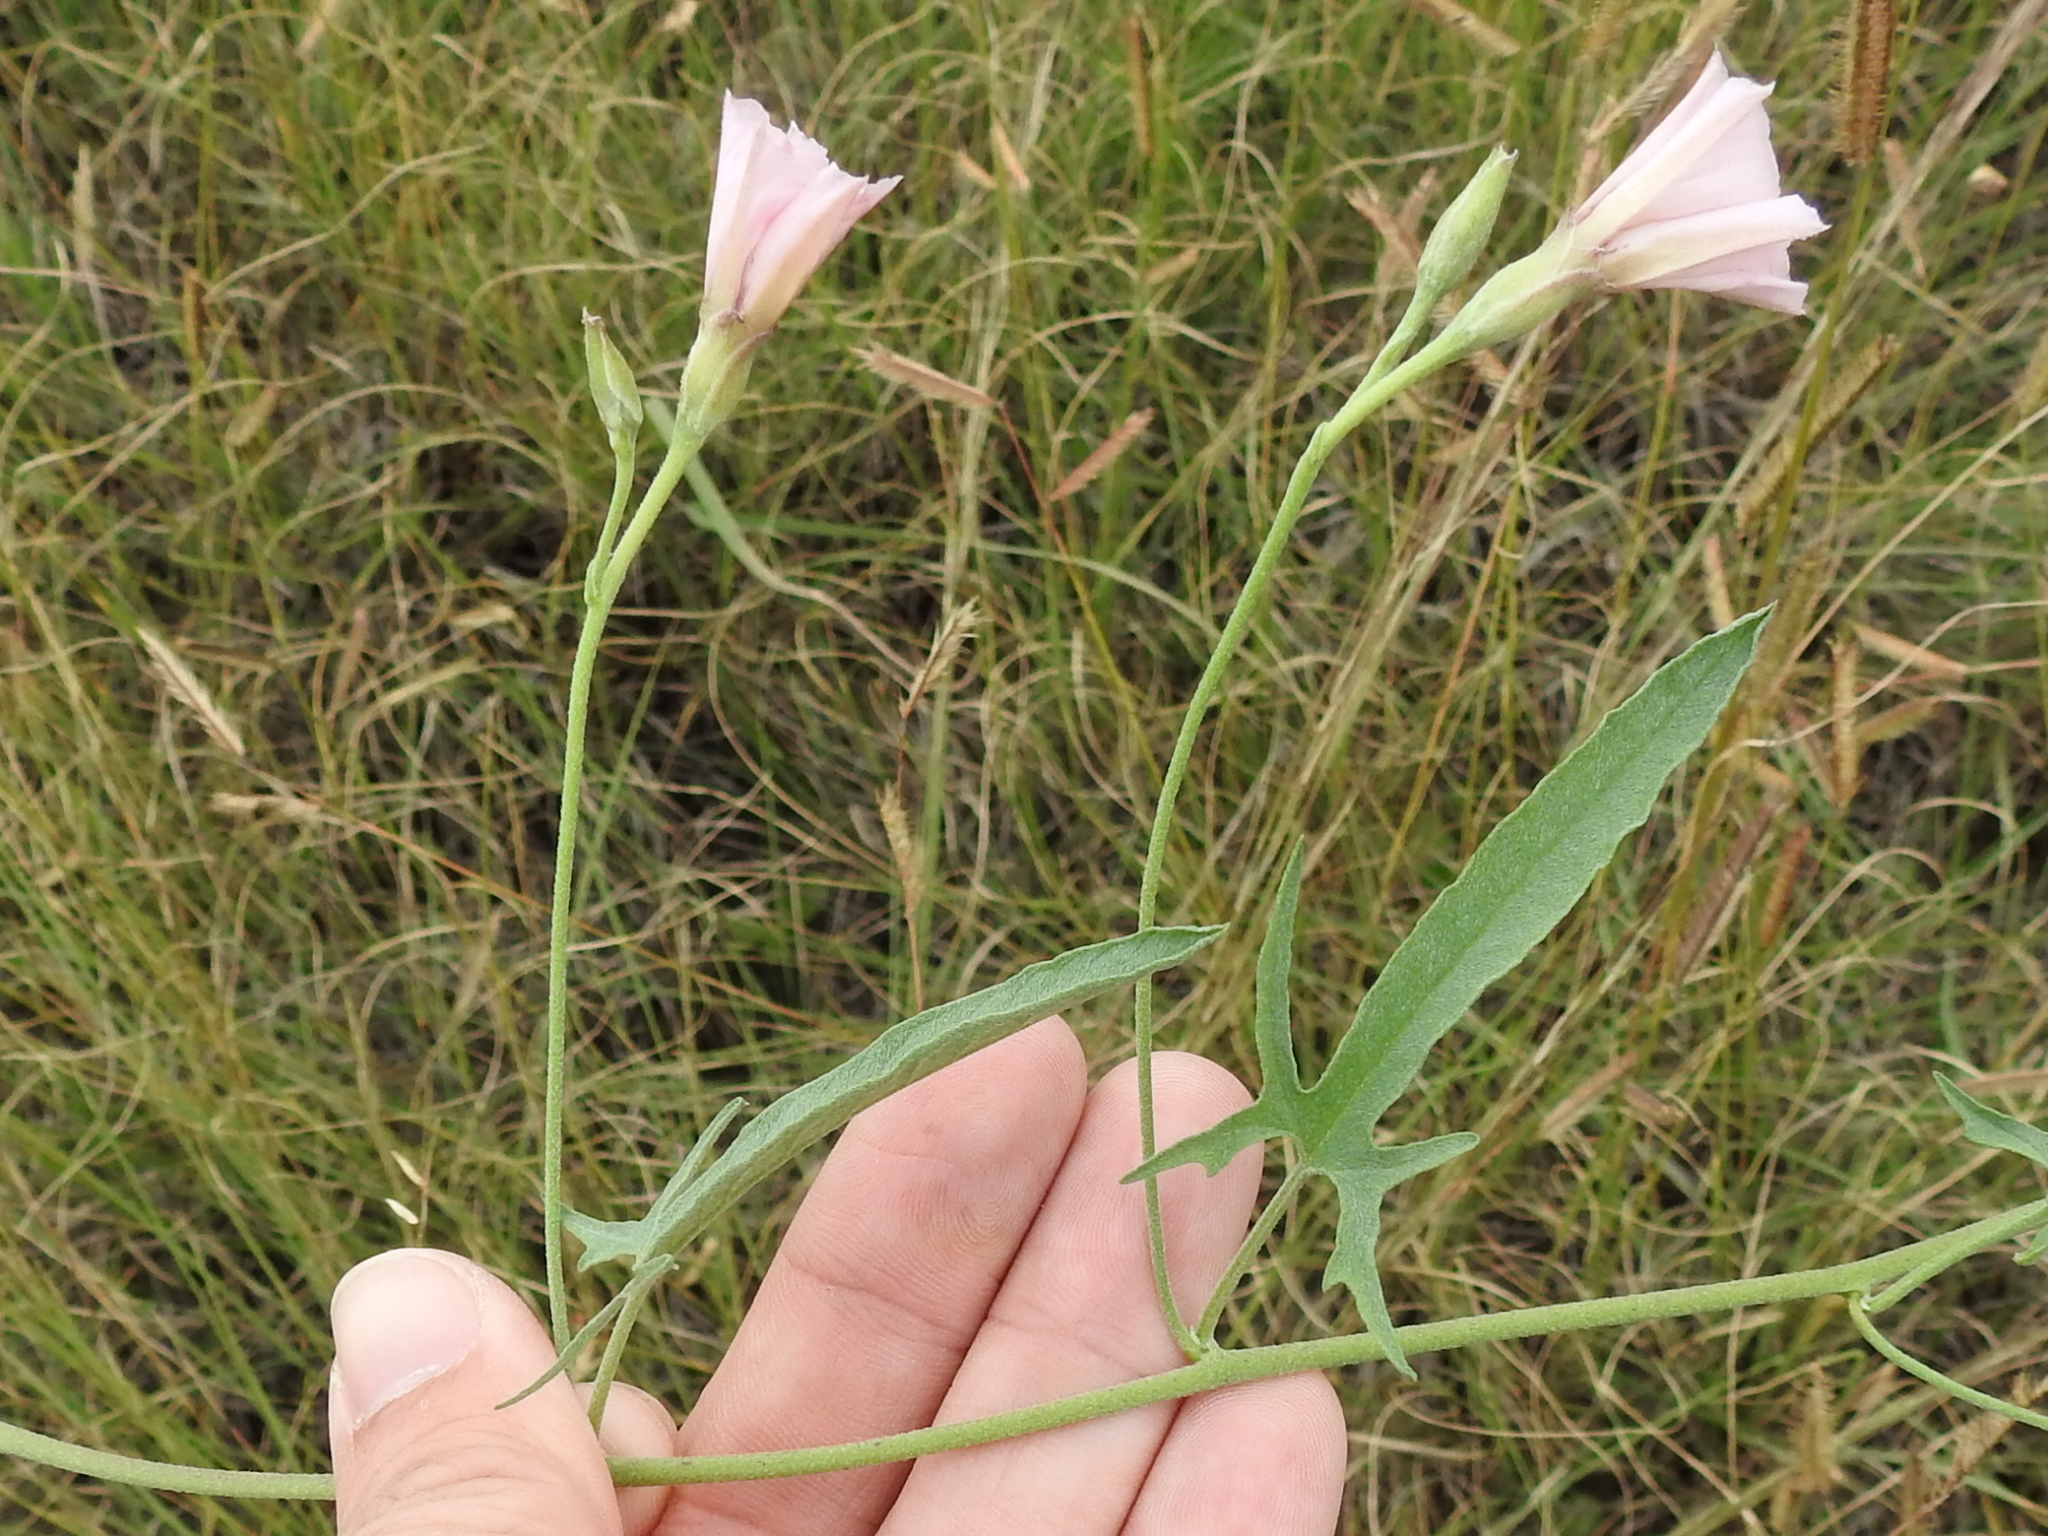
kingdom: Plantae
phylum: Tracheophyta
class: Magnoliopsida
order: Solanales
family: Convolvulaceae
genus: Convolvulus
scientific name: Convolvulus equitans
